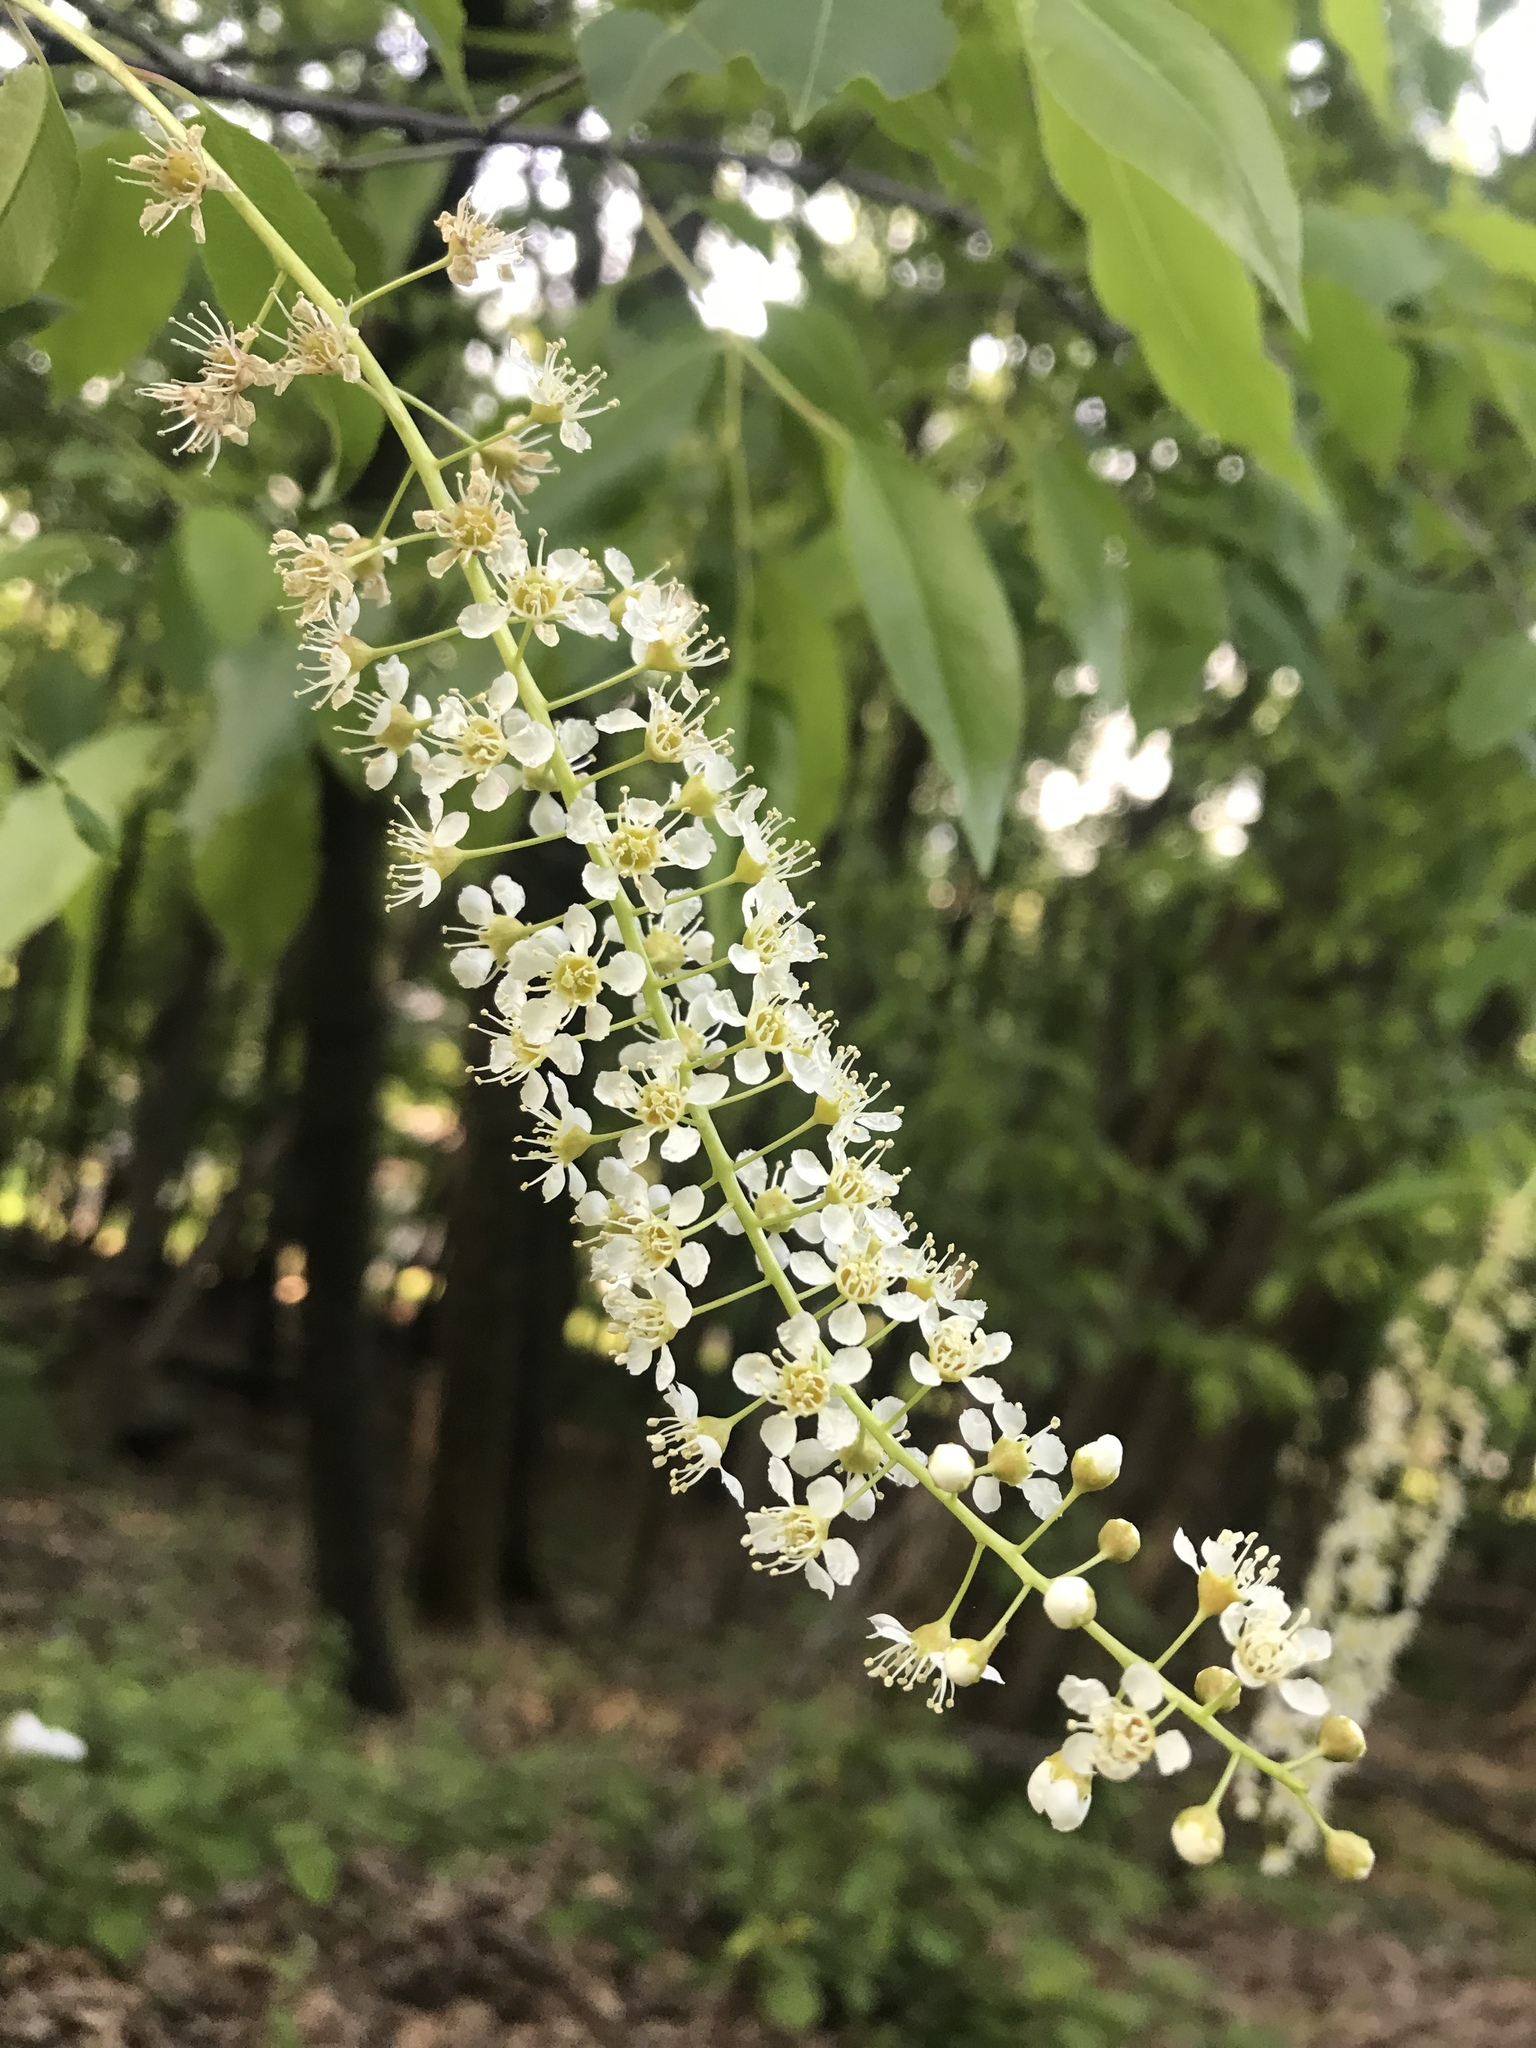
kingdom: Plantae
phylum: Tracheophyta
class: Magnoliopsida
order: Rosales
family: Rosaceae
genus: Prunus
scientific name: Prunus serotina
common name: Black cherry
